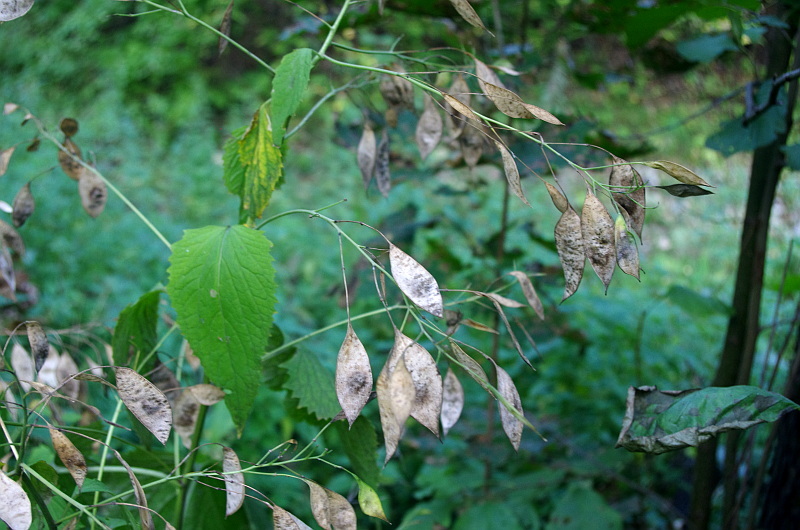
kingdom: Plantae
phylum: Tracheophyta
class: Magnoliopsida
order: Brassicales
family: Brassicaceae
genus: Lunaria
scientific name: Lunaria rediviva
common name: Perennial honesty
